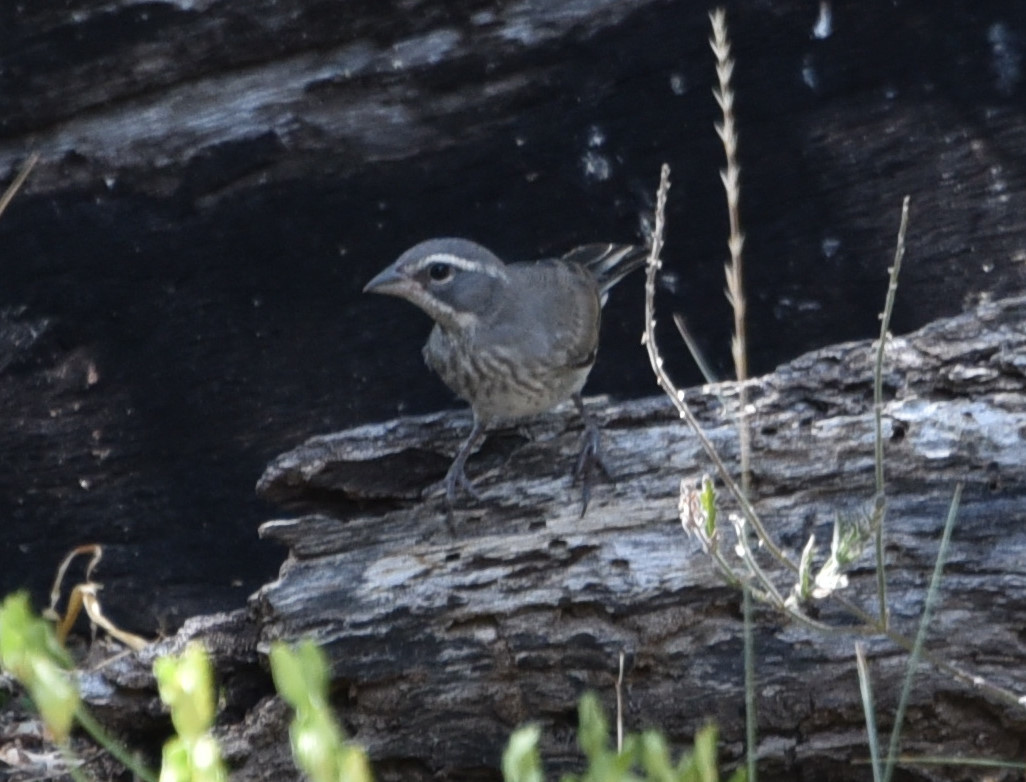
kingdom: Animalia
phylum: Chordata
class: Aves
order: Passeriformes
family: Passerellidae
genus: Amphispiza
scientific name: Amphispiza bilineata
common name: Black-throated sparrow
